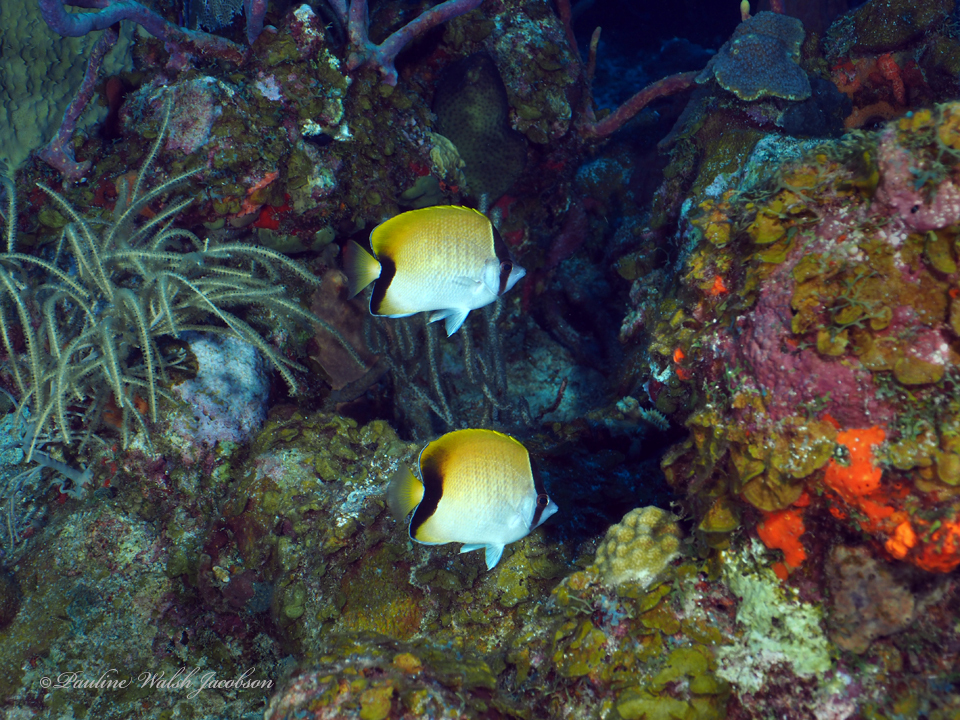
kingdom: Animalia
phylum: Chordata
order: Perciformes
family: Chaetodontidae
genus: Chaetodon
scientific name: Chaetodon sedentarius
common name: Reef butterflyfish
